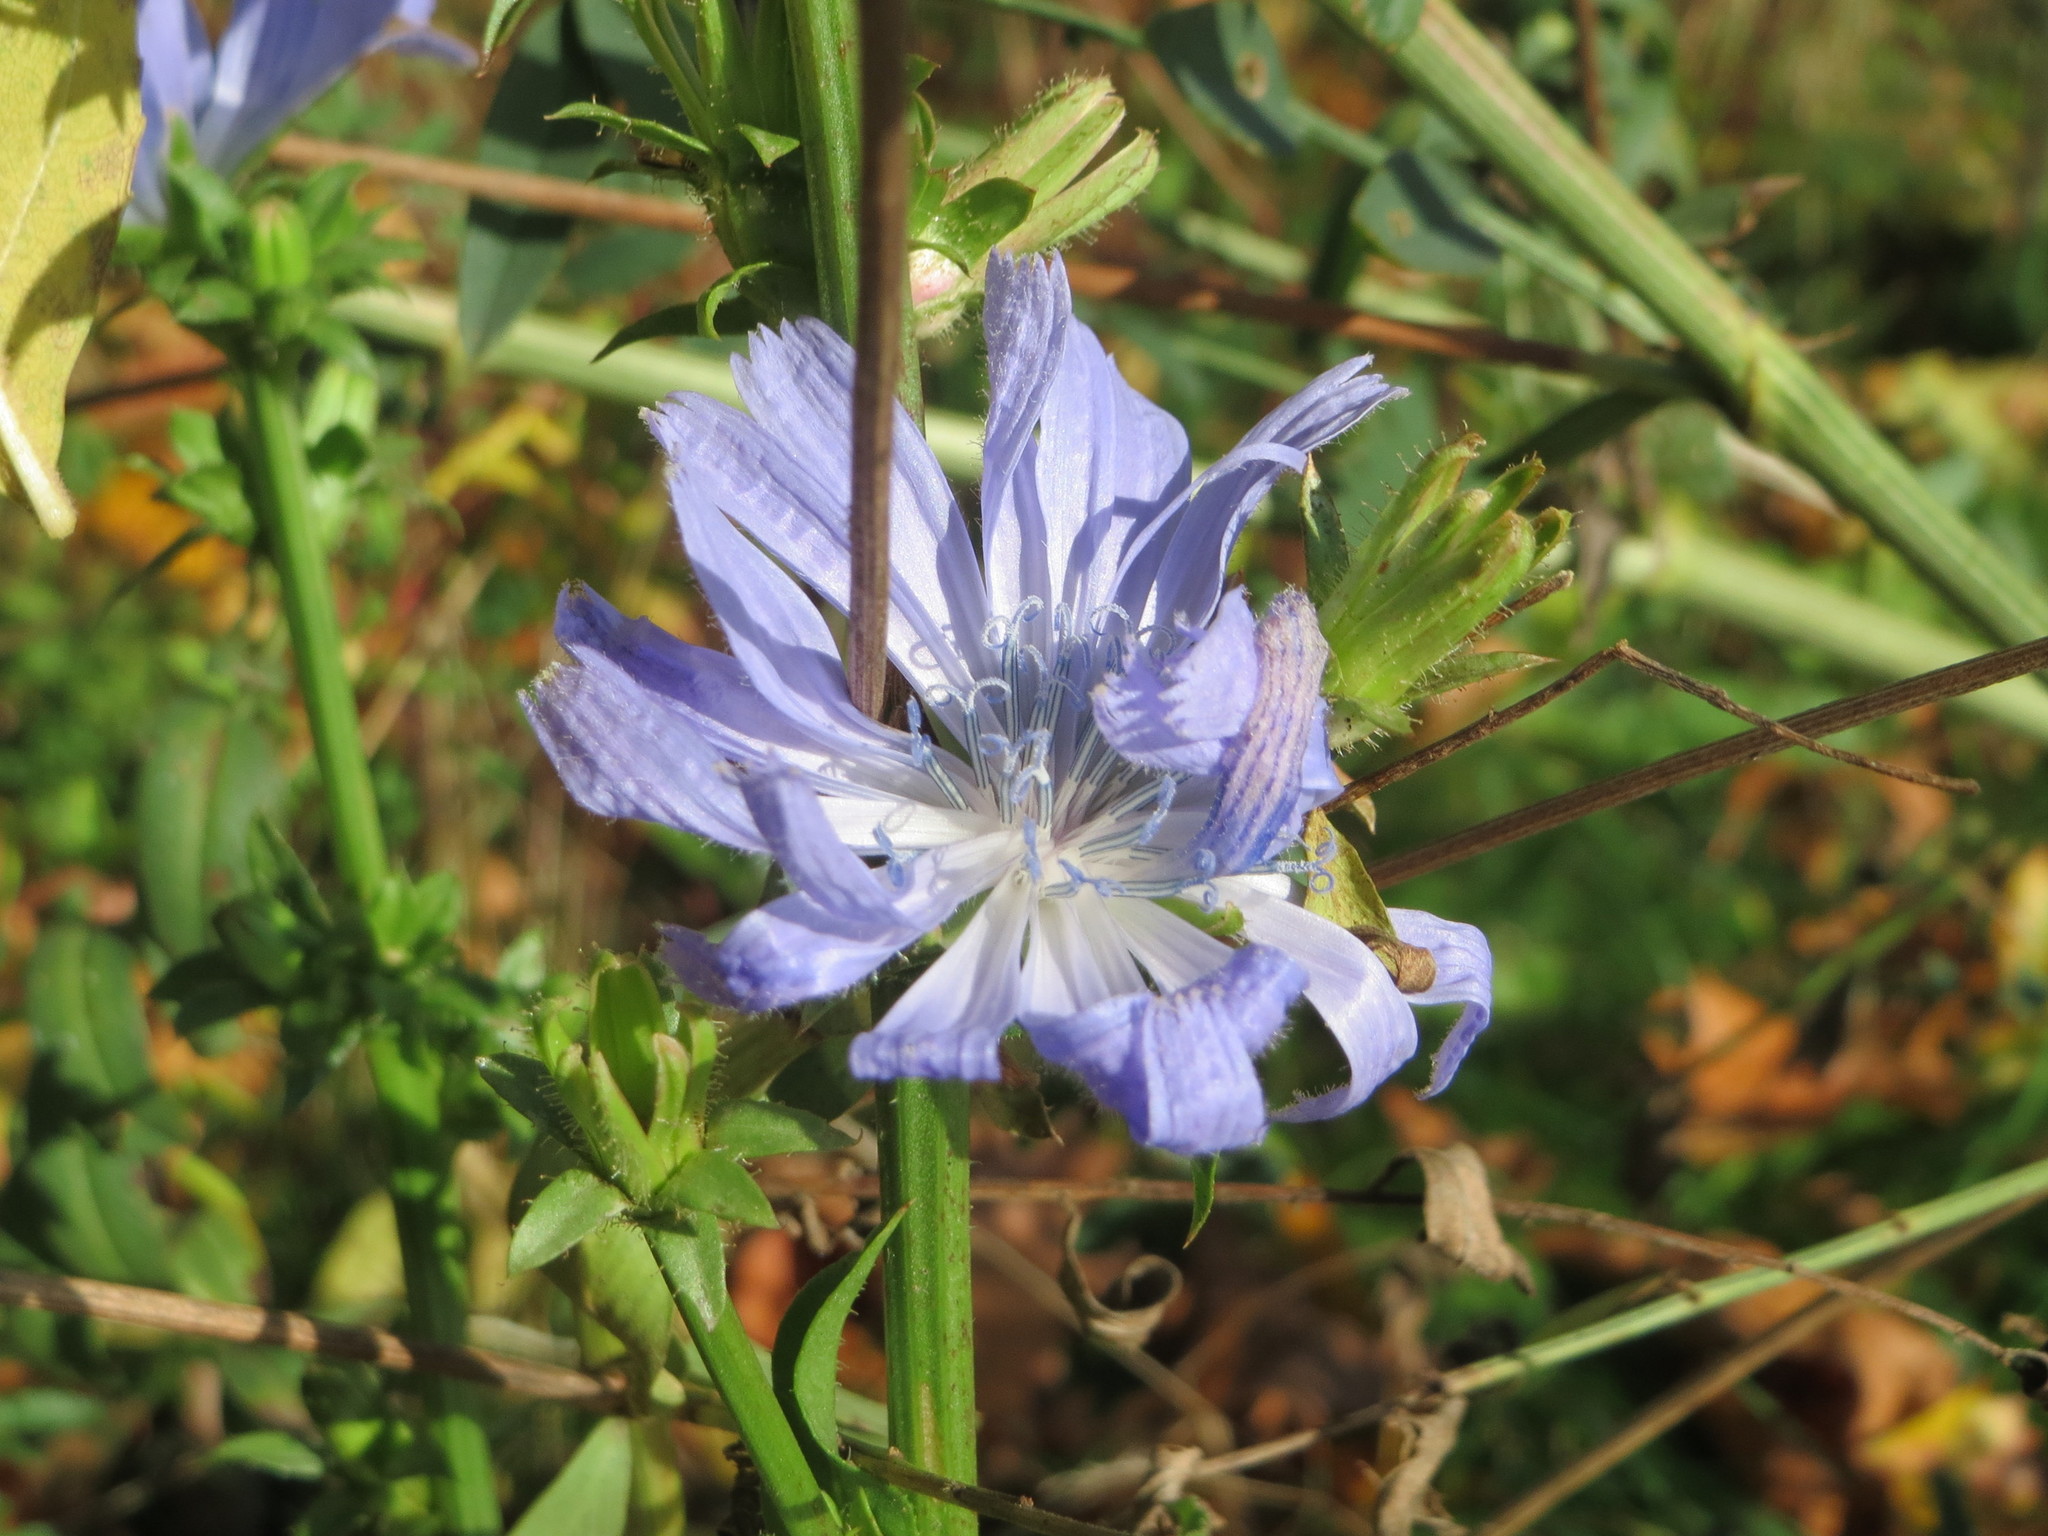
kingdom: Plantae
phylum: Tracheophyta
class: Magnoliopsida
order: Asterales
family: Asteraceae
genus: Cichorium
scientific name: Cichorium intybus
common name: Chicory
